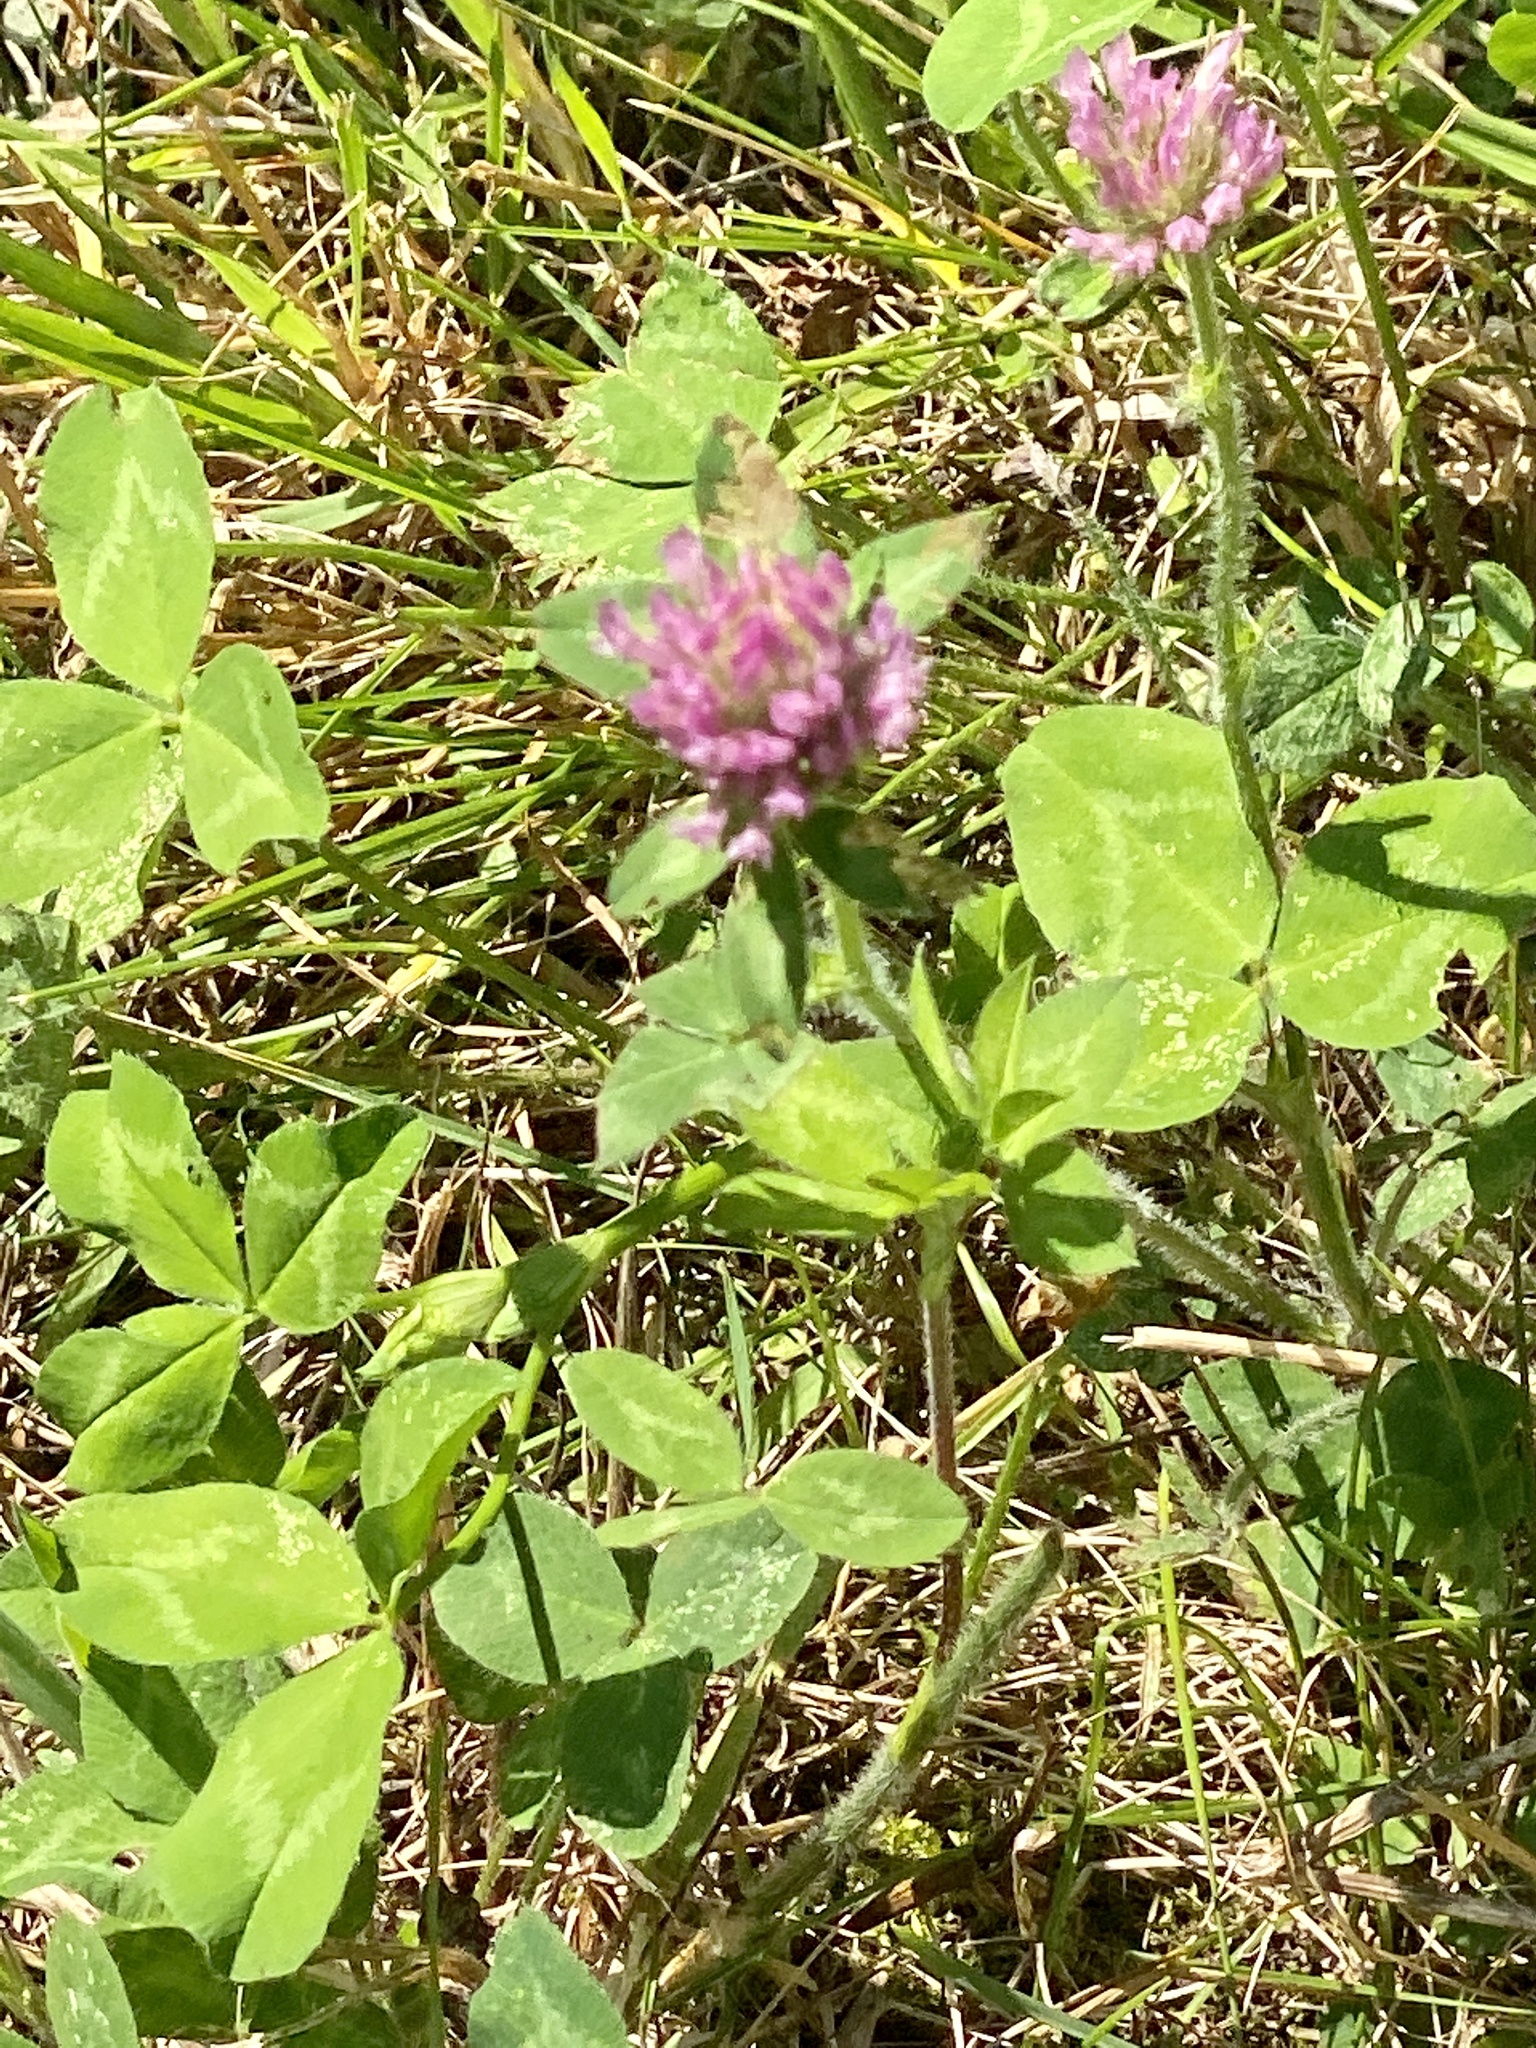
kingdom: Plantae
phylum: Tracheophyta
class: Magnoliopsida
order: Fabales
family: Fabaceae
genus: Trifolium
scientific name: Trifolium pratense
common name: Red clover
